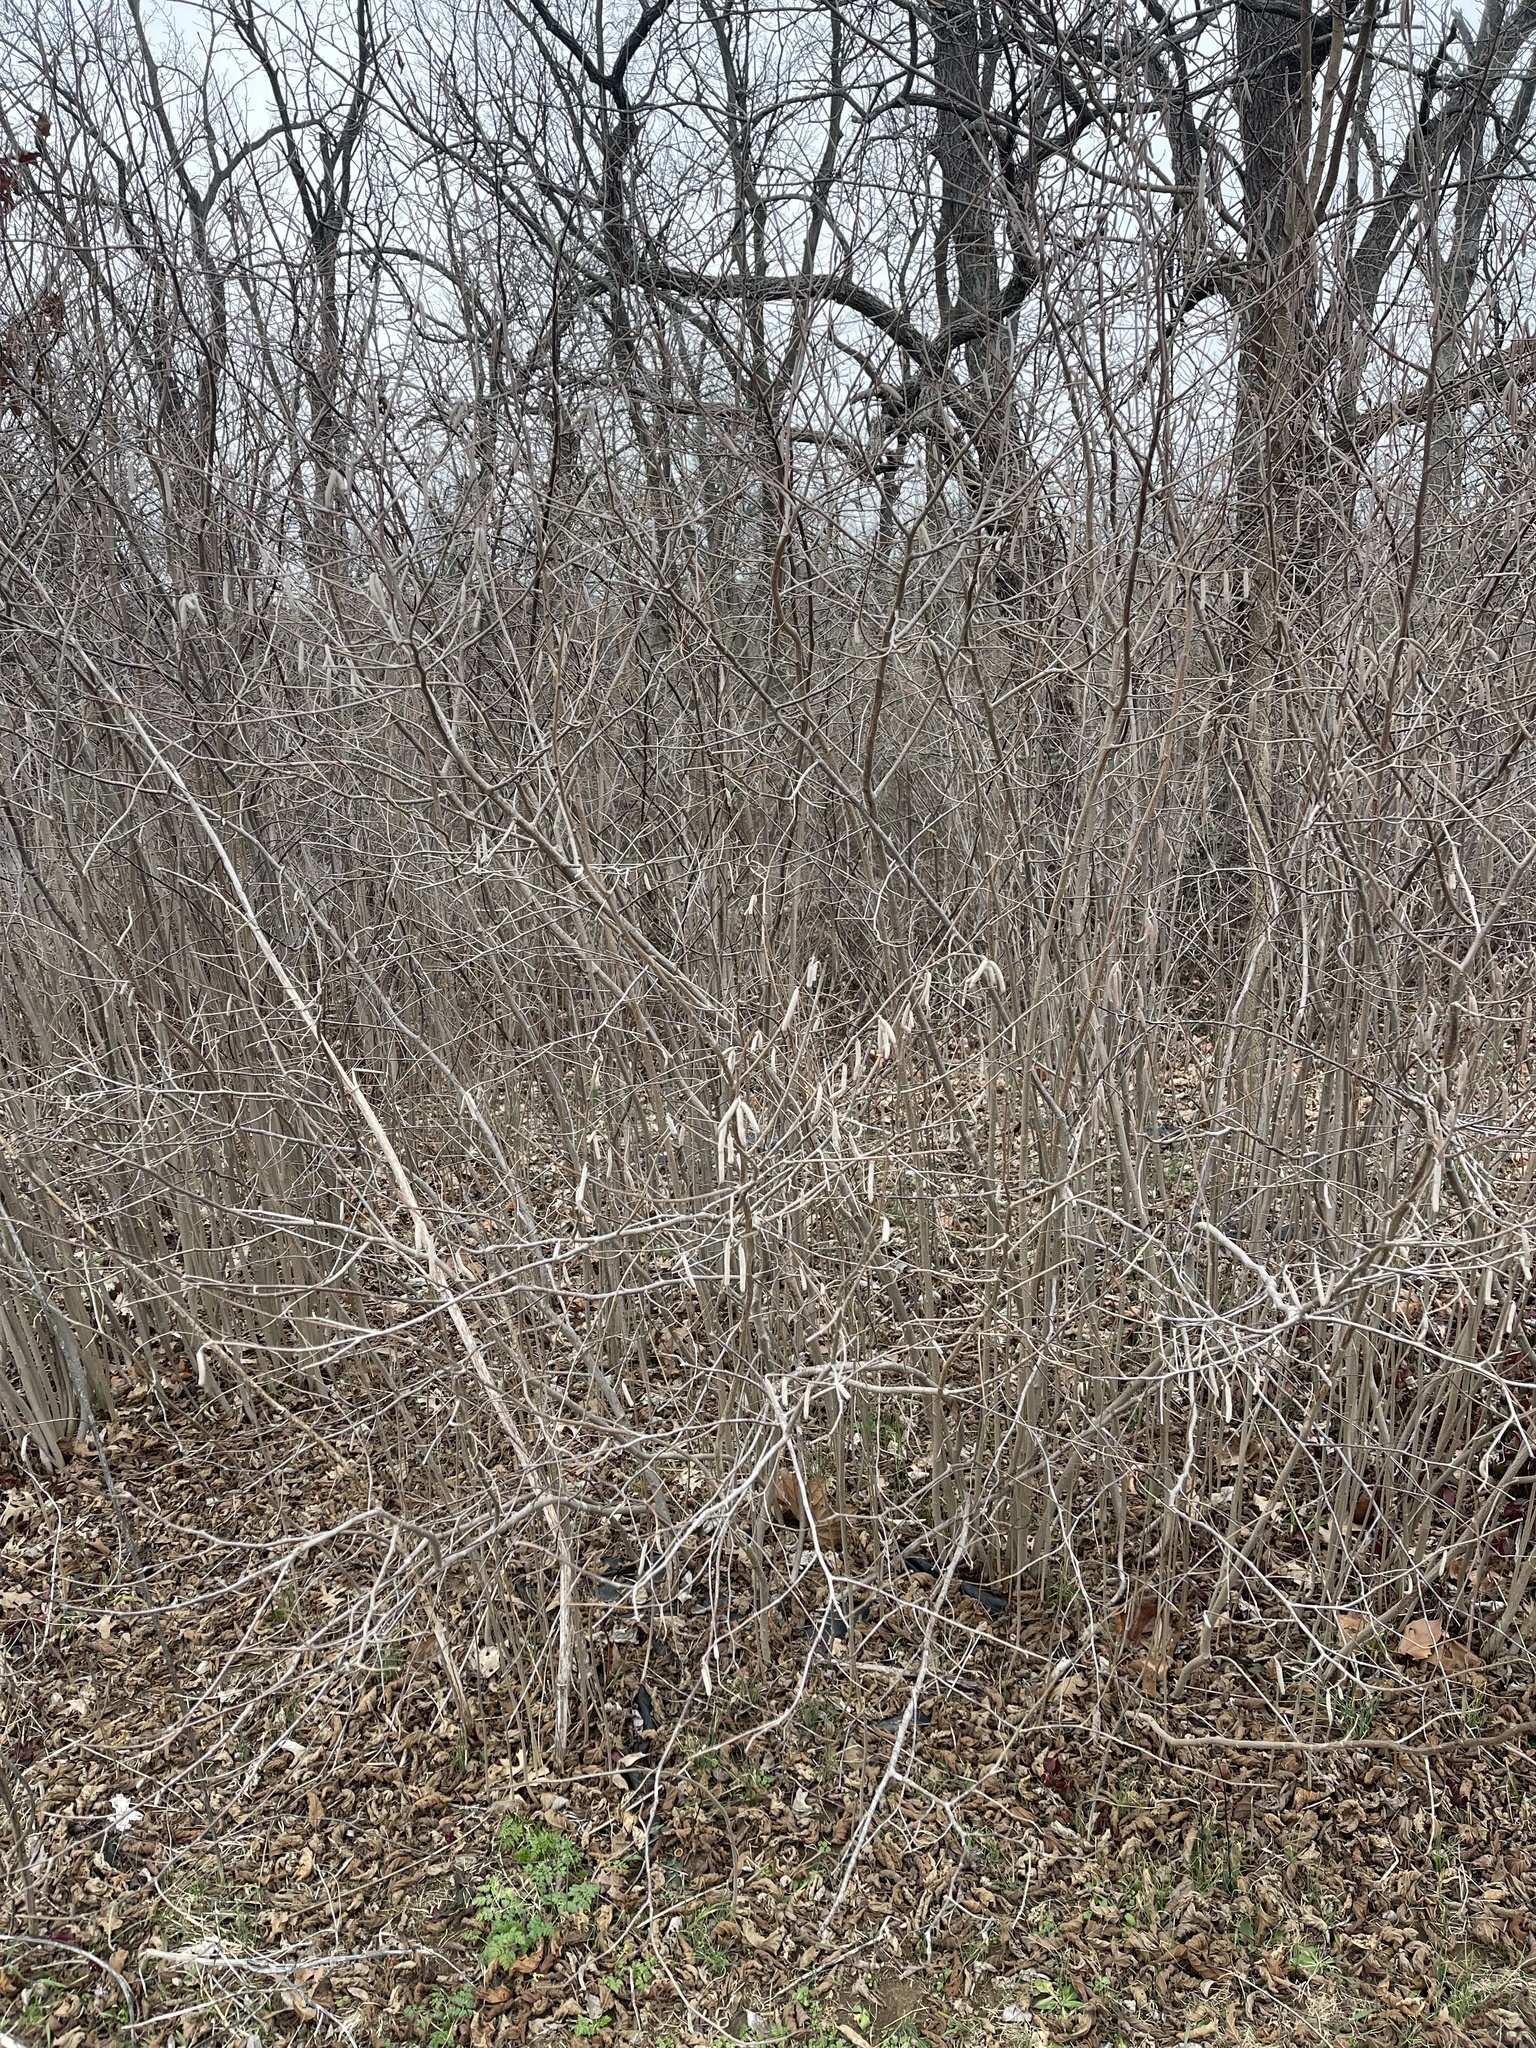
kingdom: Plantae
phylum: Tracheophyta
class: Magnoliopsida
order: Fagales
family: Betulaceae
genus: Corylus
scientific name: Corylus americana
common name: American hazel
